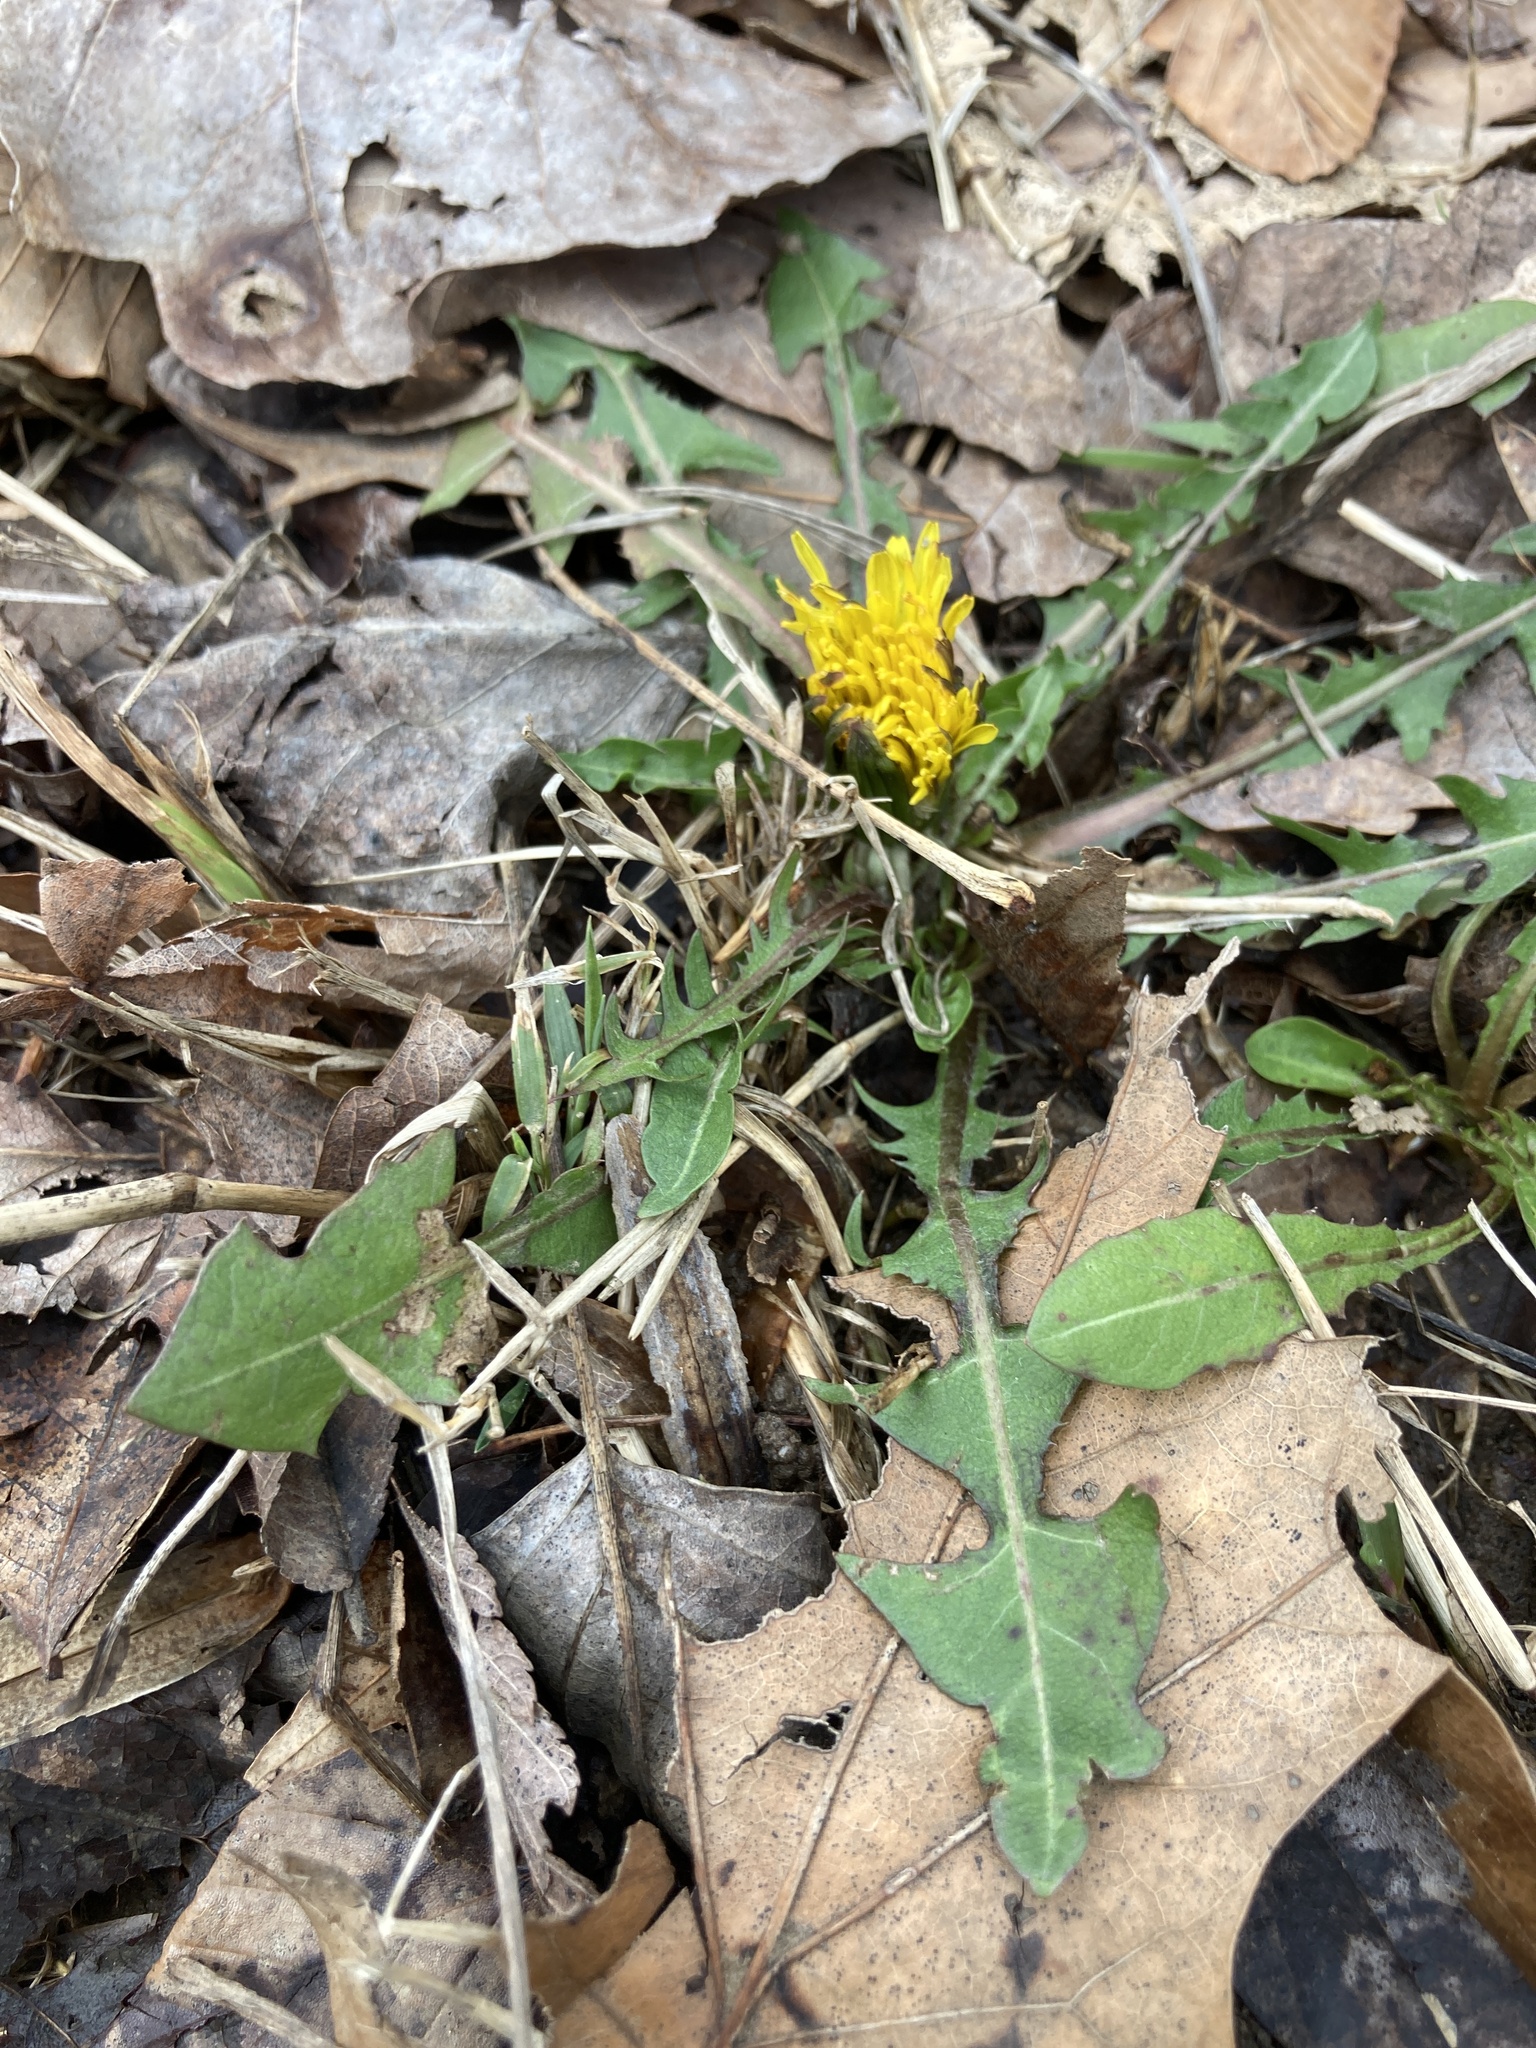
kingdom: Plantae
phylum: Tracheophyta
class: Magnoliopsida
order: Asterales
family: Asteraceae
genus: Taraxacum
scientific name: Taraxacum officinale
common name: Common dandelion
